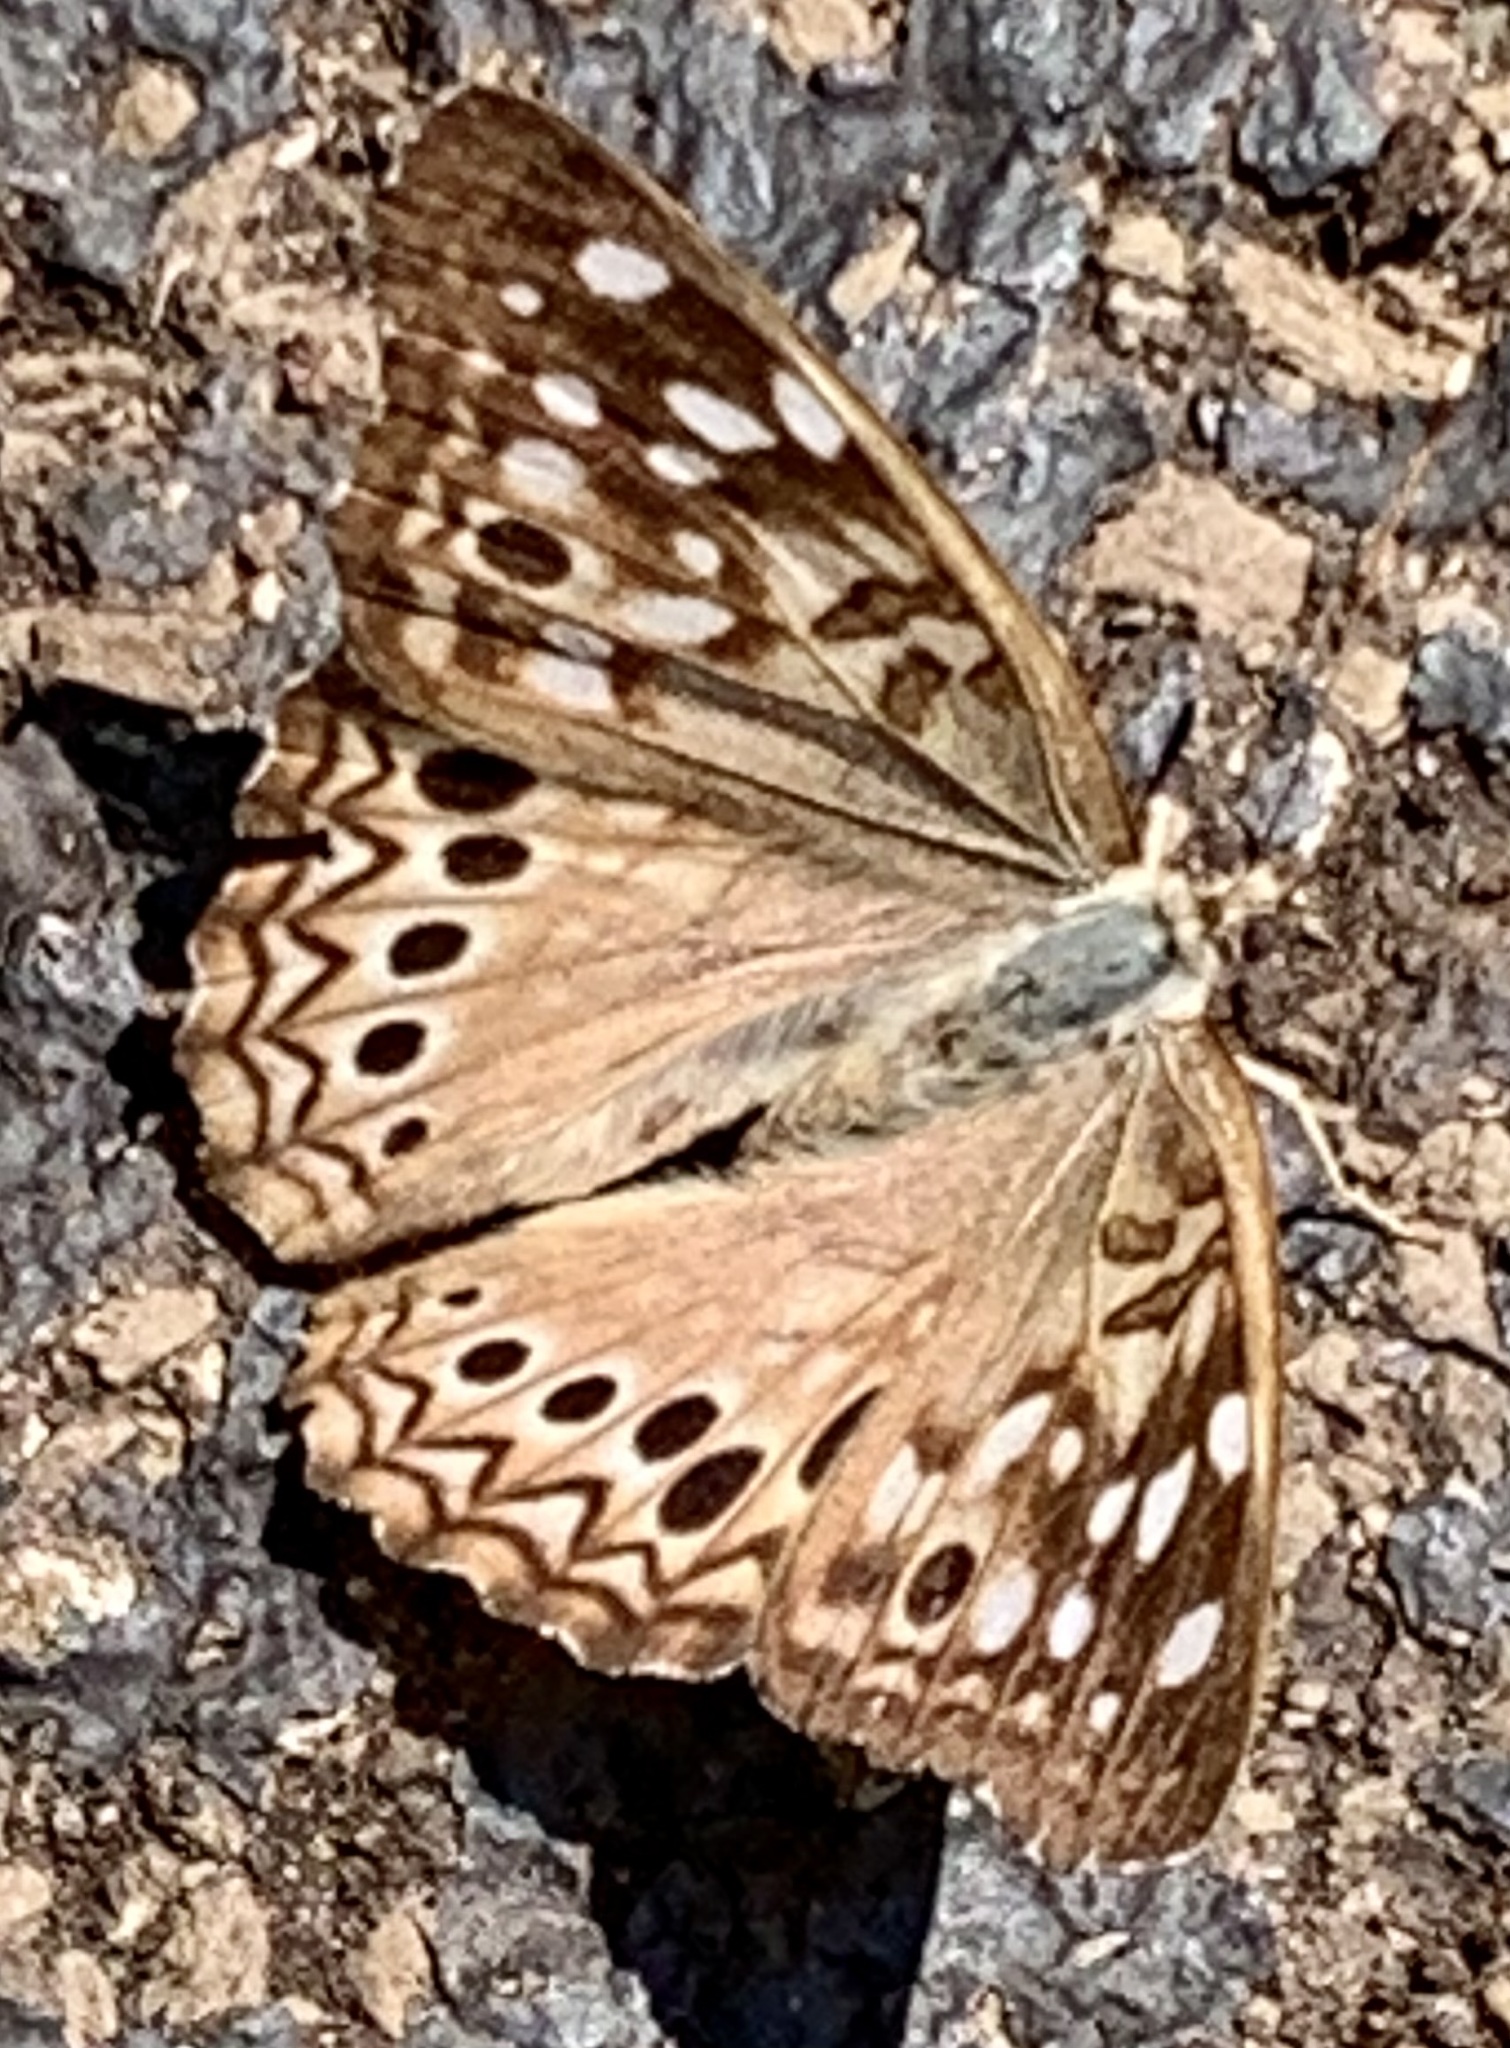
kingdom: Animalia
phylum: Arthropoda
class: Insecta
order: Lepidoptera
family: Nymphalidae
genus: Asterocampa
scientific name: Asterocampa celtis
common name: Hackberry emperor
